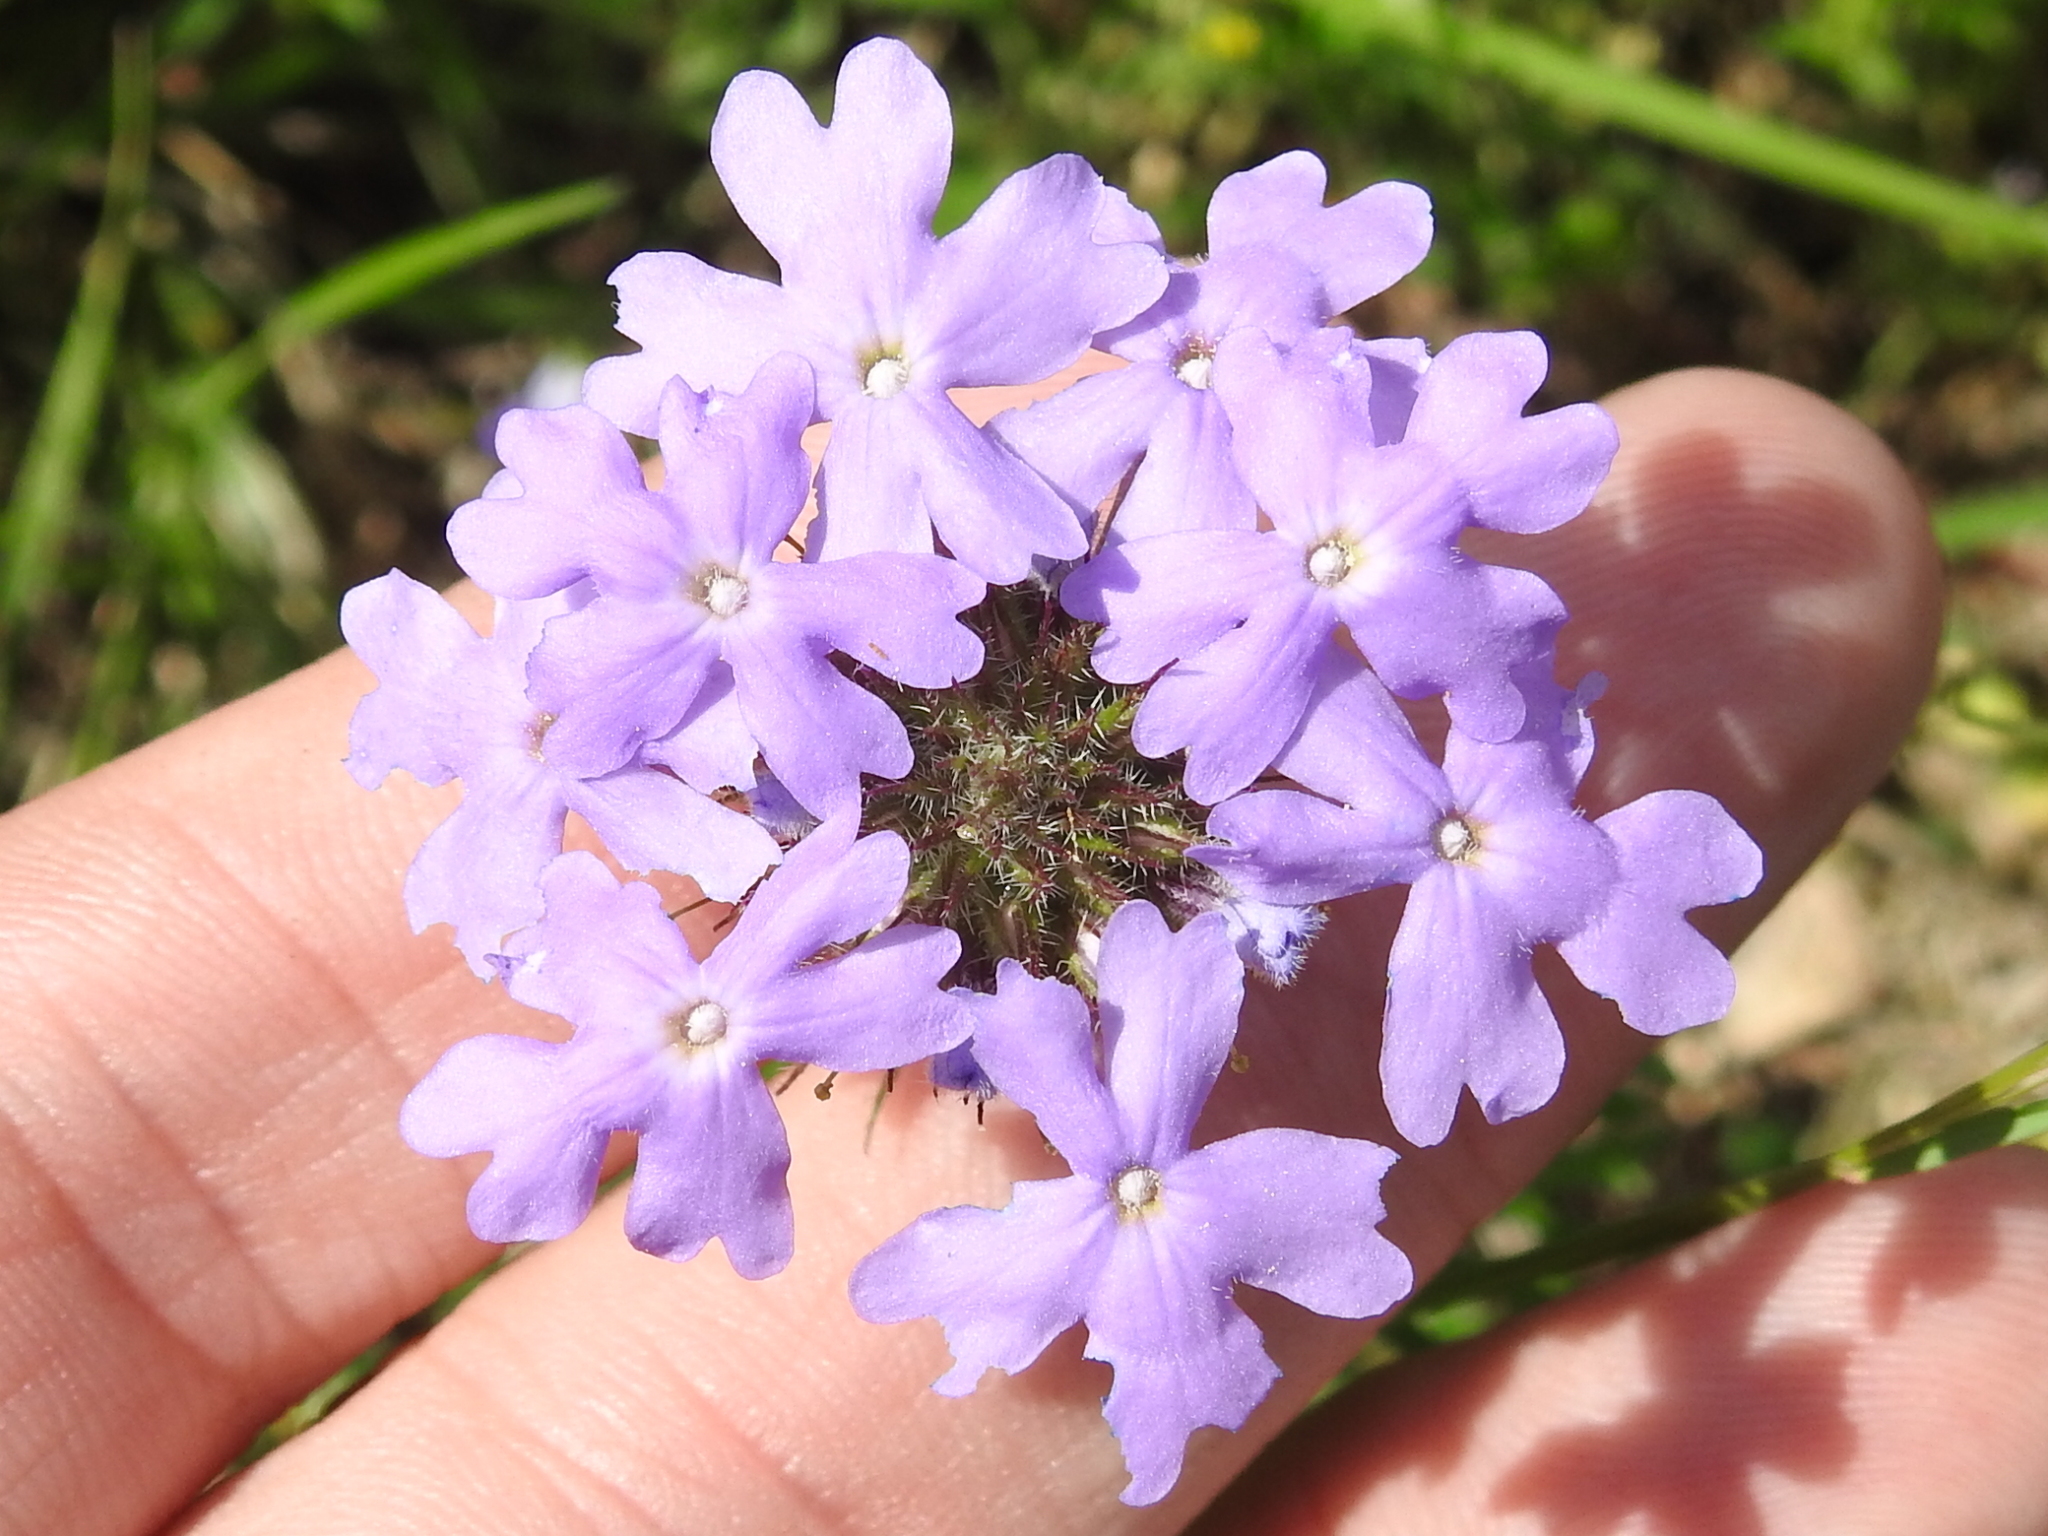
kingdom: Plantae
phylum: Tracheophyta
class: Magnoliopsida
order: Lamiales
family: Verbenaceae
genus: Verbena
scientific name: Verbena bipinnatifida
